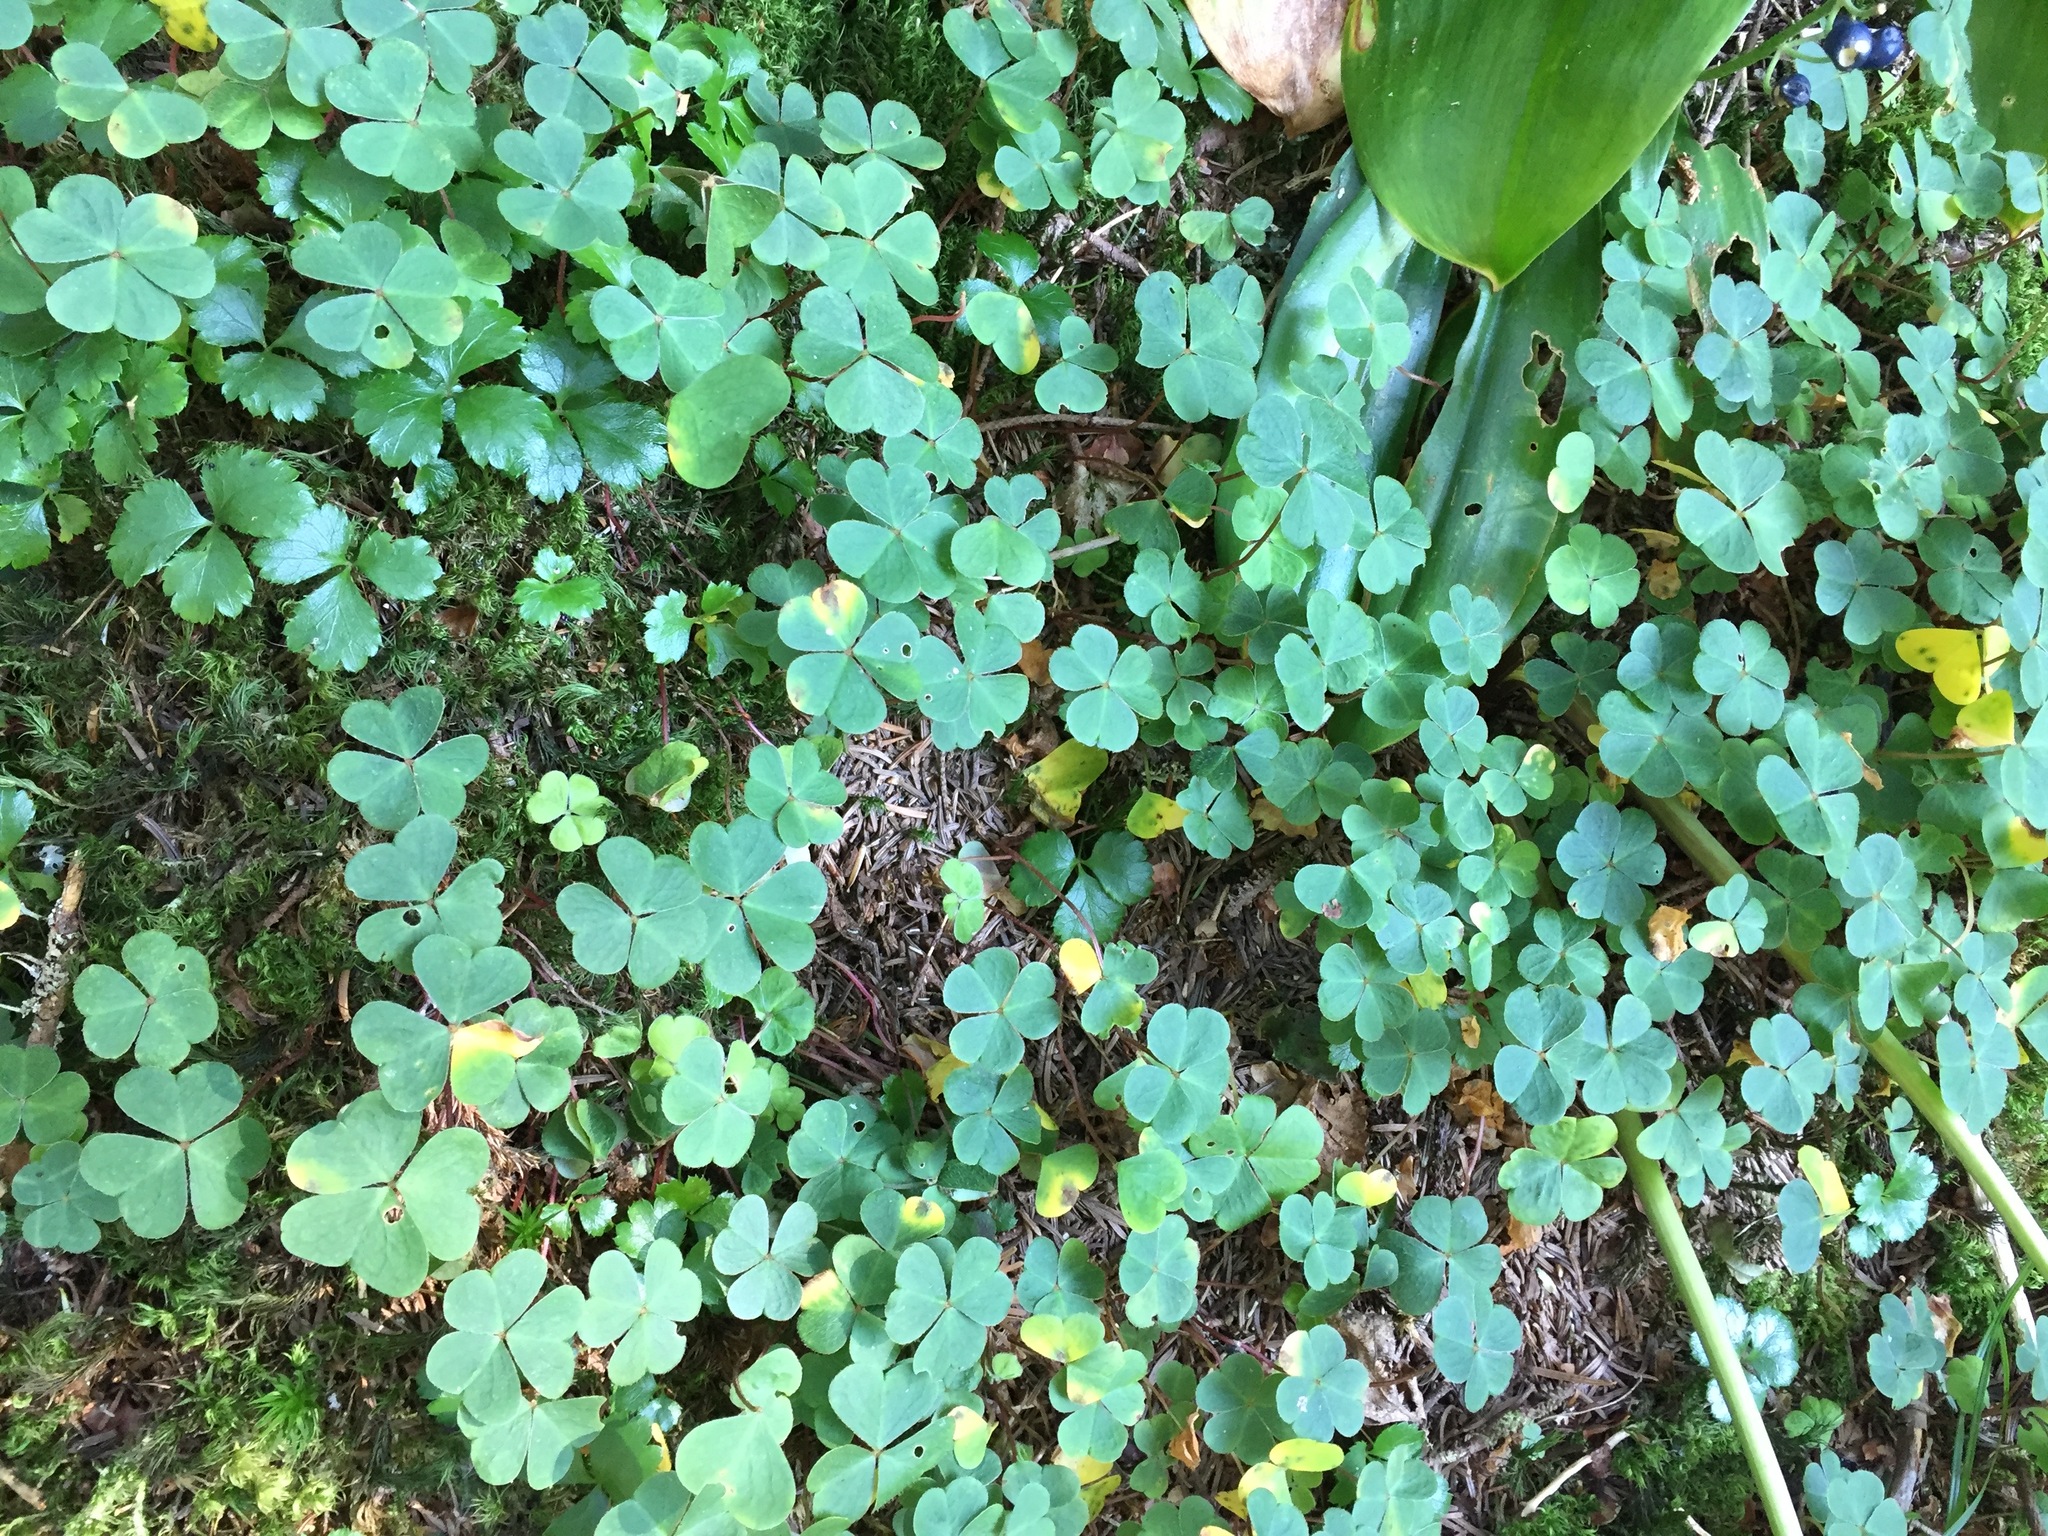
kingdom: Plantae
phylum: Tracheophyta
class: Magnoliopsida
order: Oxalidales
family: Oxalidaceae
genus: Oxalis
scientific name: Oxalis montana
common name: American wood-sorrel
